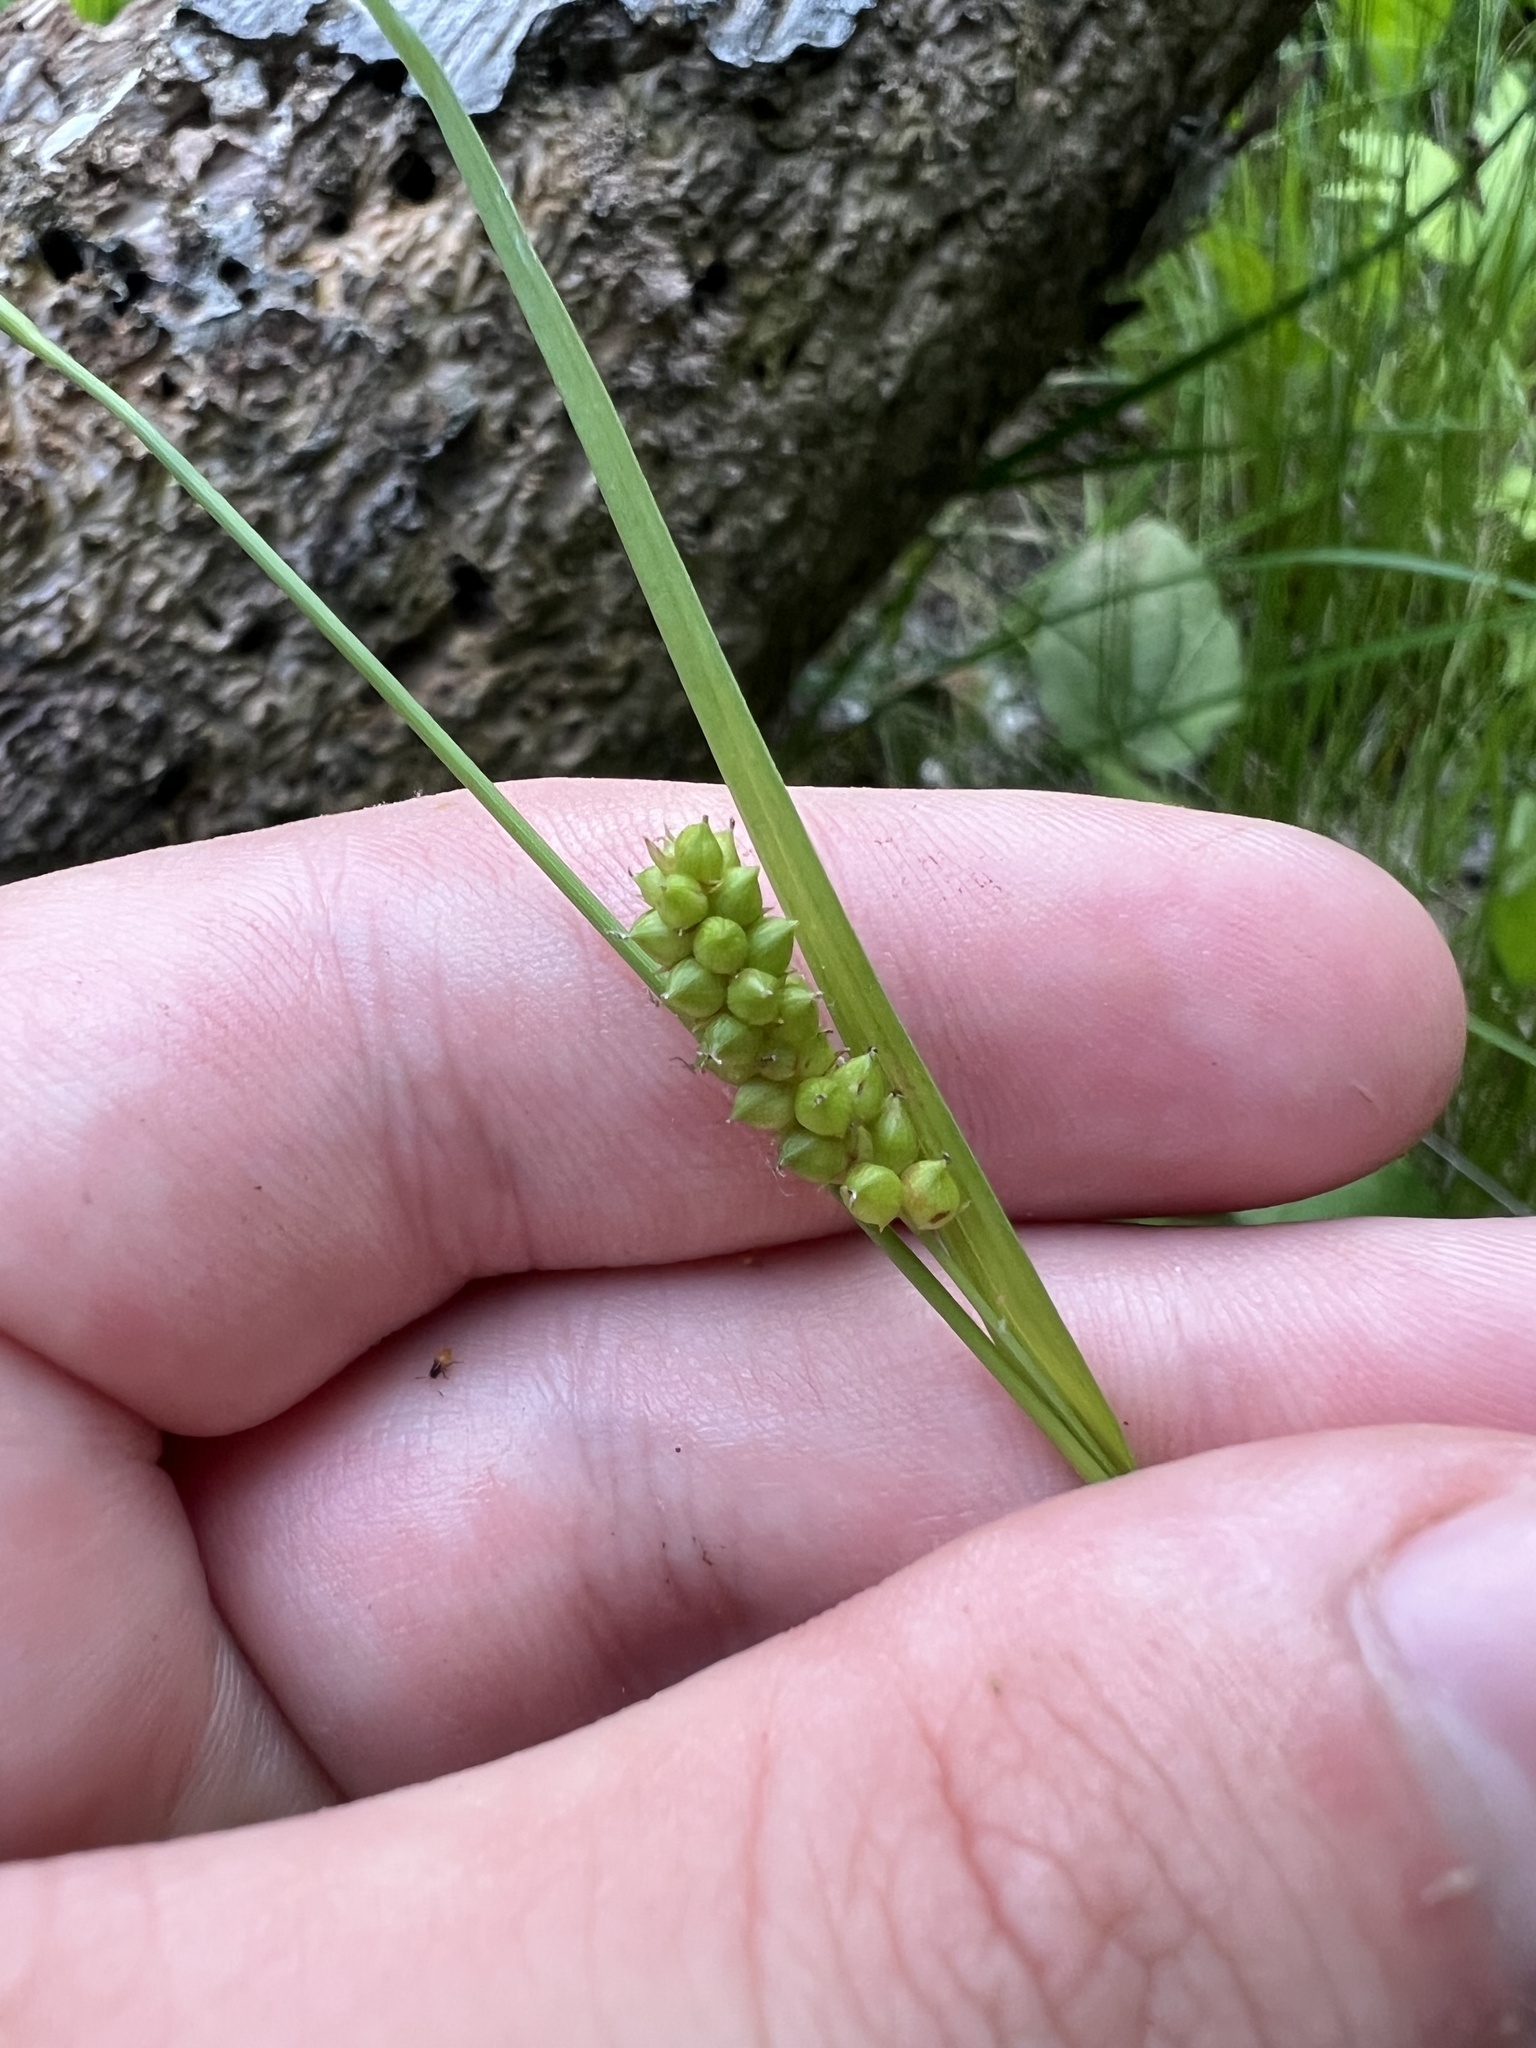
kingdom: Plantae
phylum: Tracheophyta
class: Liliopsida
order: Poales
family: Cyperaceae
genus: Carex
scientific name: Carex granularis
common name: Granular sedge
